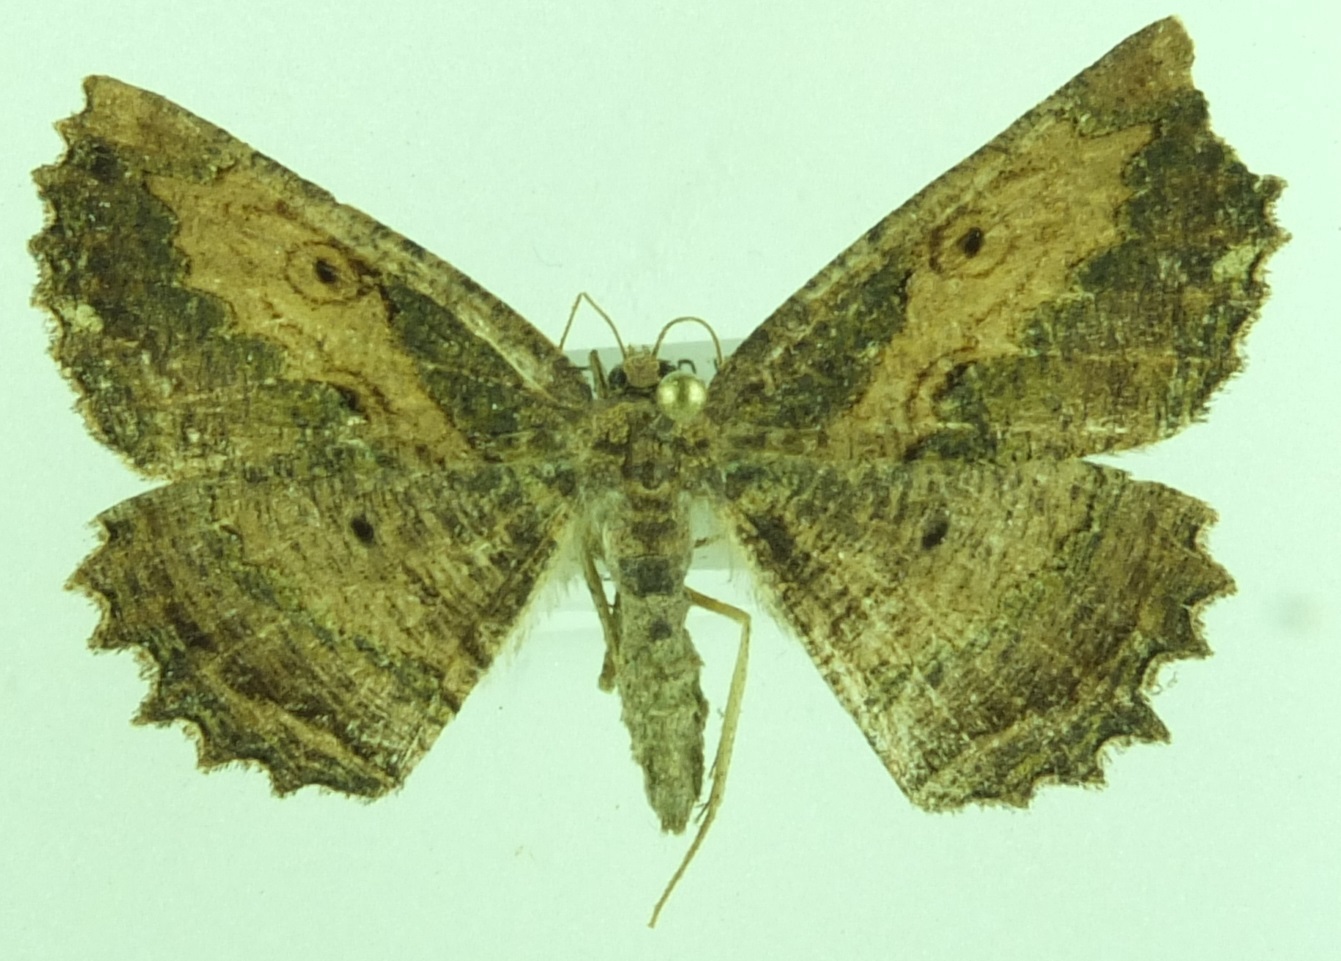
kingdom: Animalia
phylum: Arthropoda
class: Insecta
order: Lepidoptera
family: Geometridae
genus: Gellonia
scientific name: Gellonia pannularia
